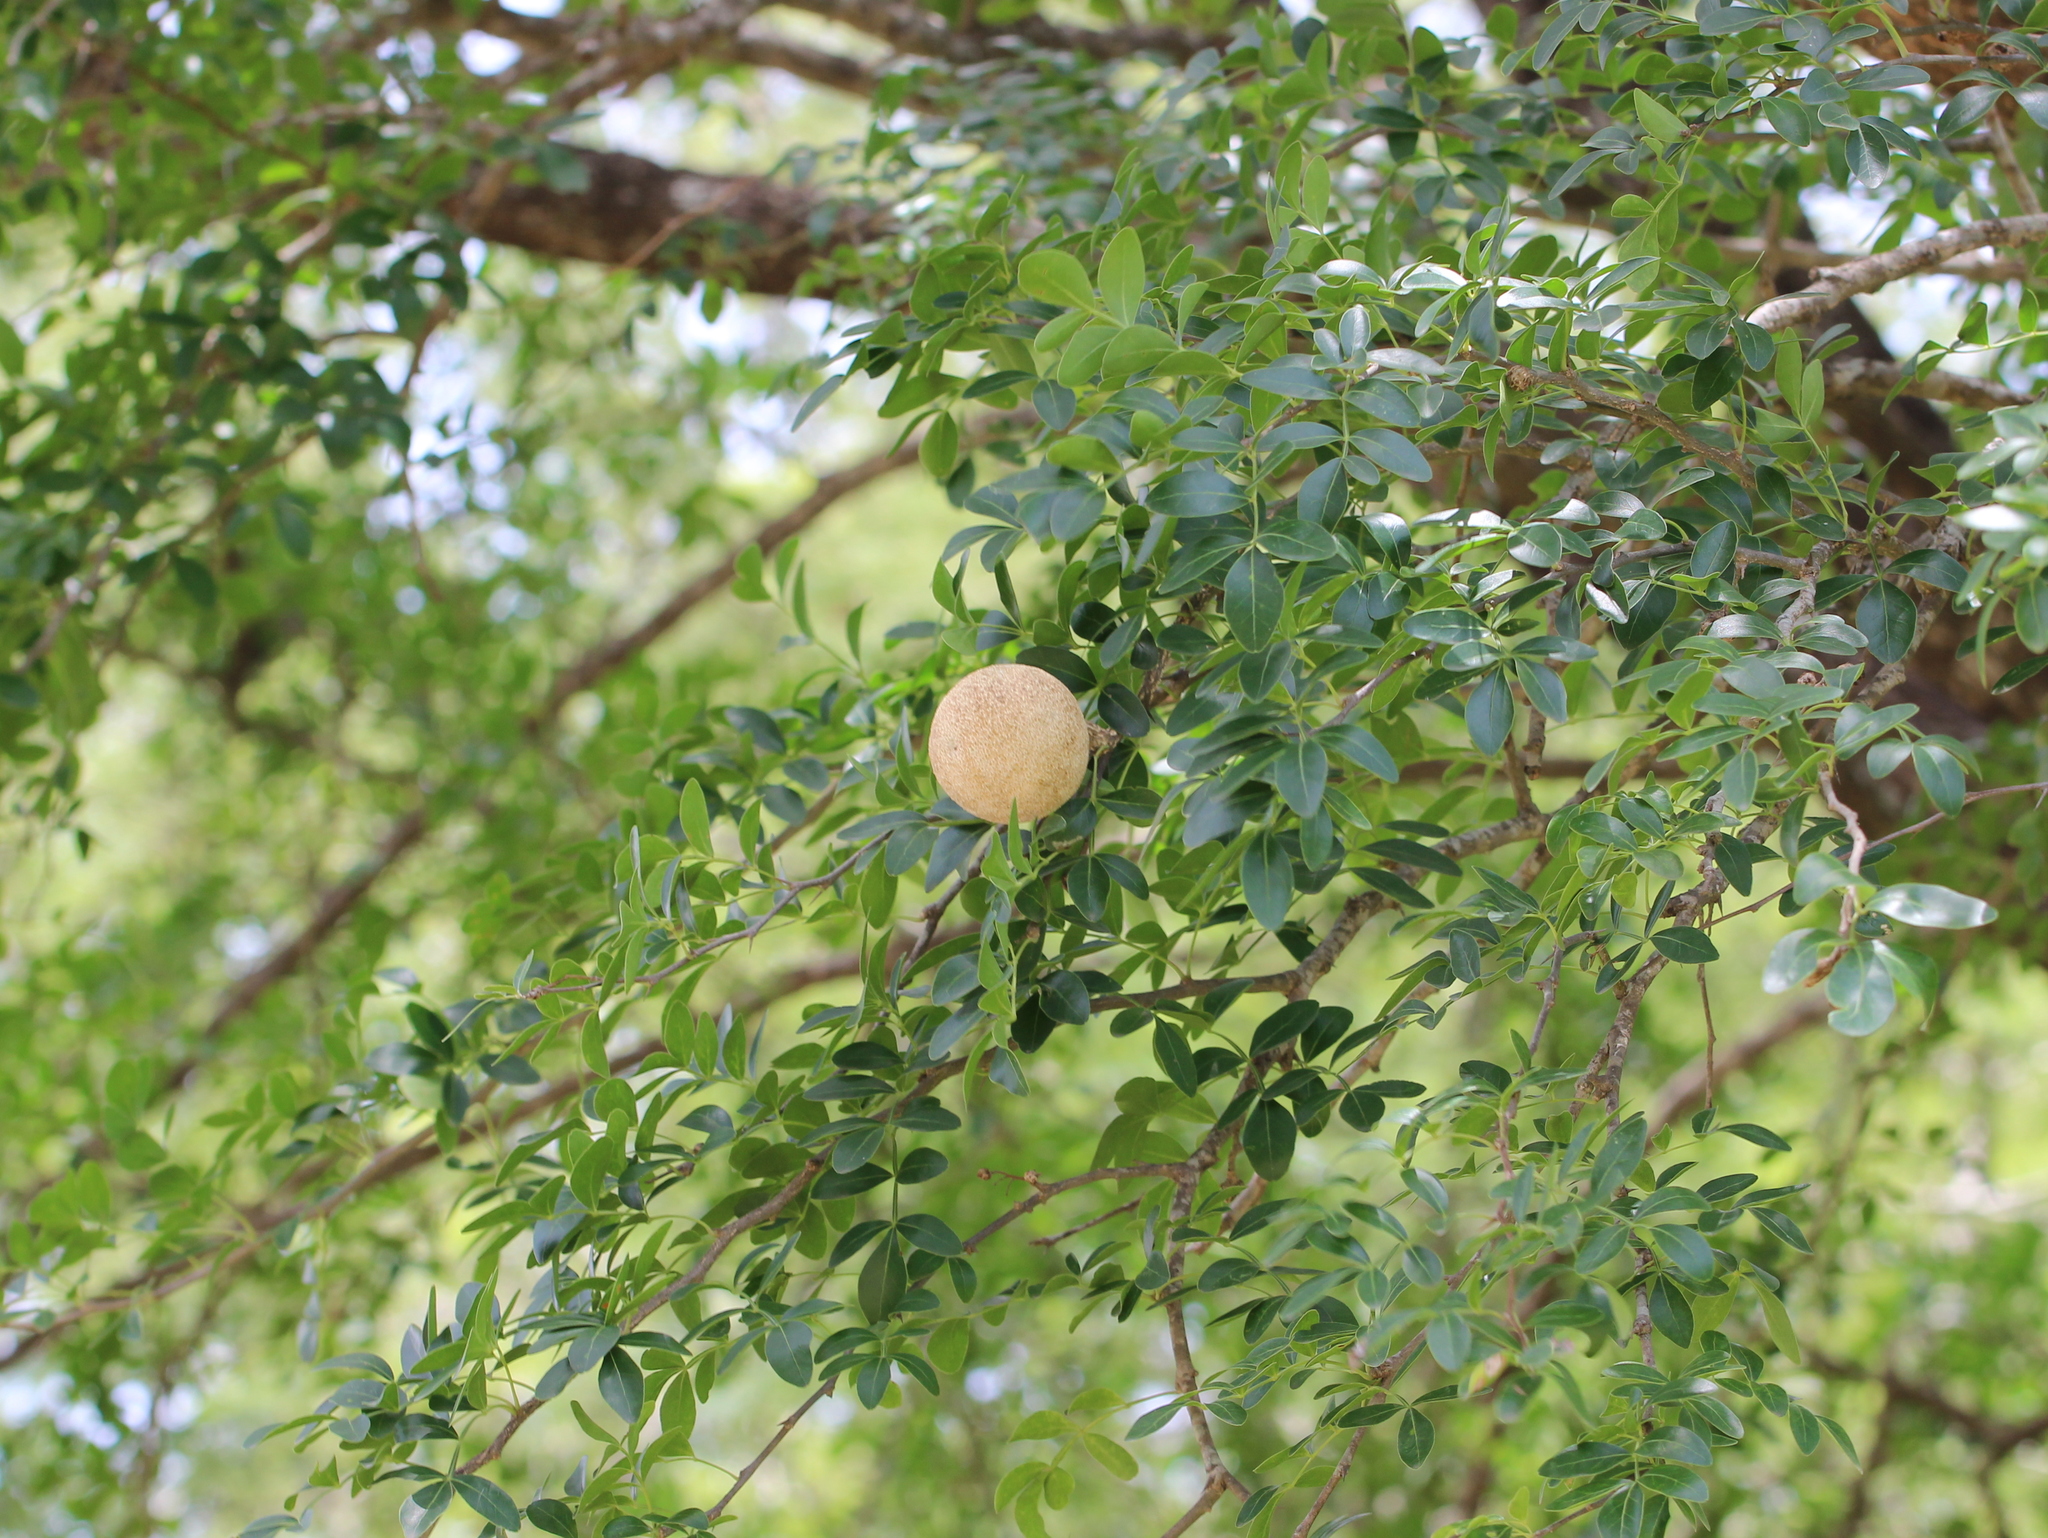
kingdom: Plantae
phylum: Tracheophyta
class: Magnoliopsida
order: Sapindales
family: Rutaceae
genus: Limonia
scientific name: Limonia acidissima
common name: Elephant apple
